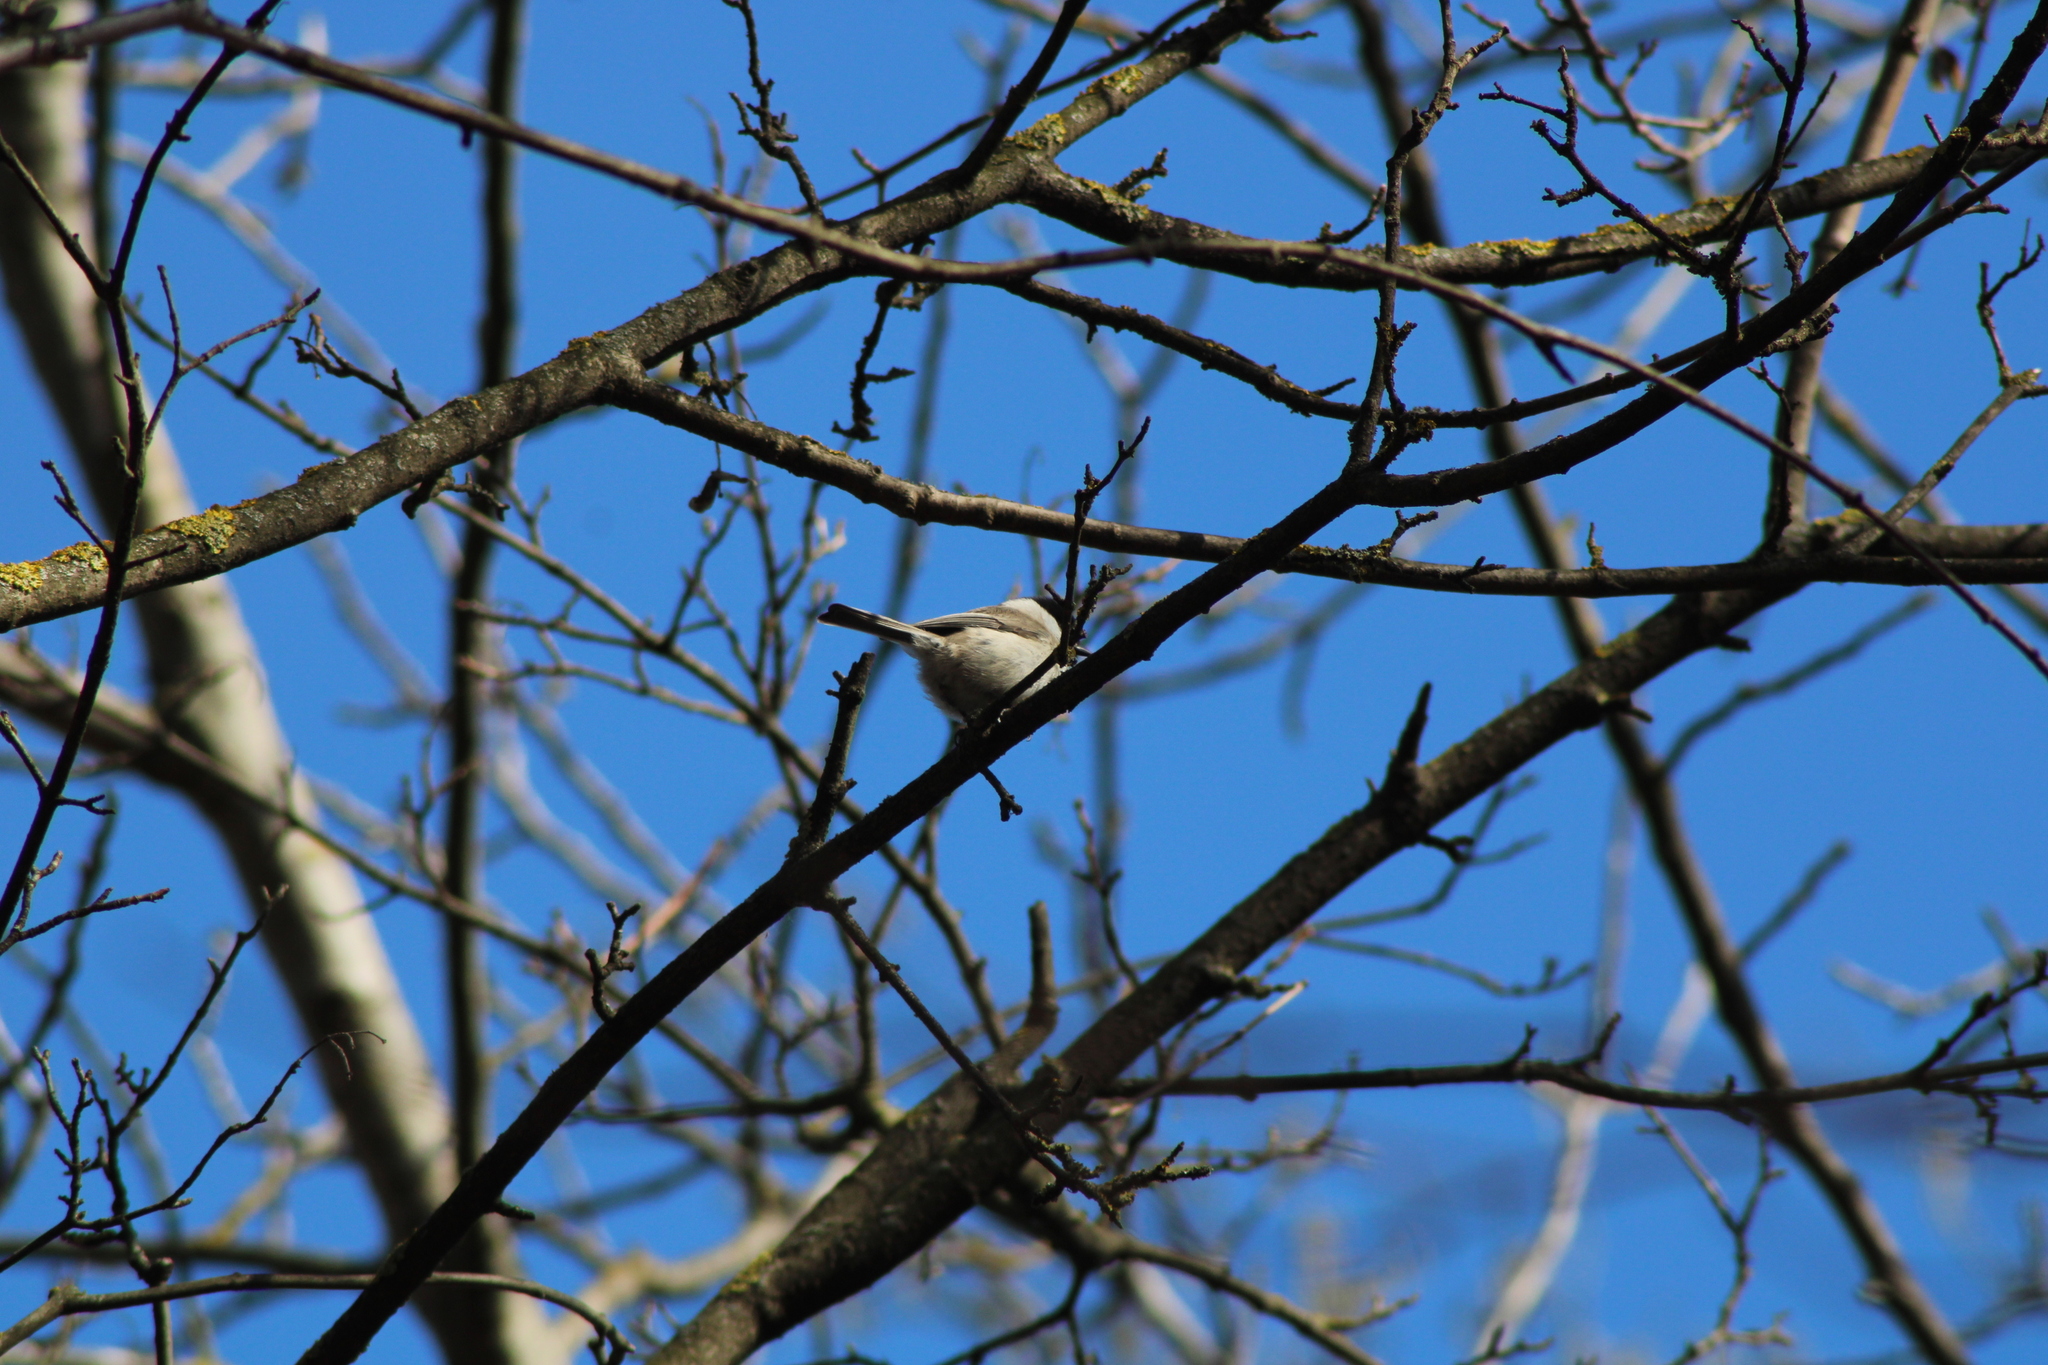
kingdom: Animalia
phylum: Chordata
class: Aves
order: Passeriformes
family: Paridae
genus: Poecile
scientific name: Poecile palustris
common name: Marsh tit
